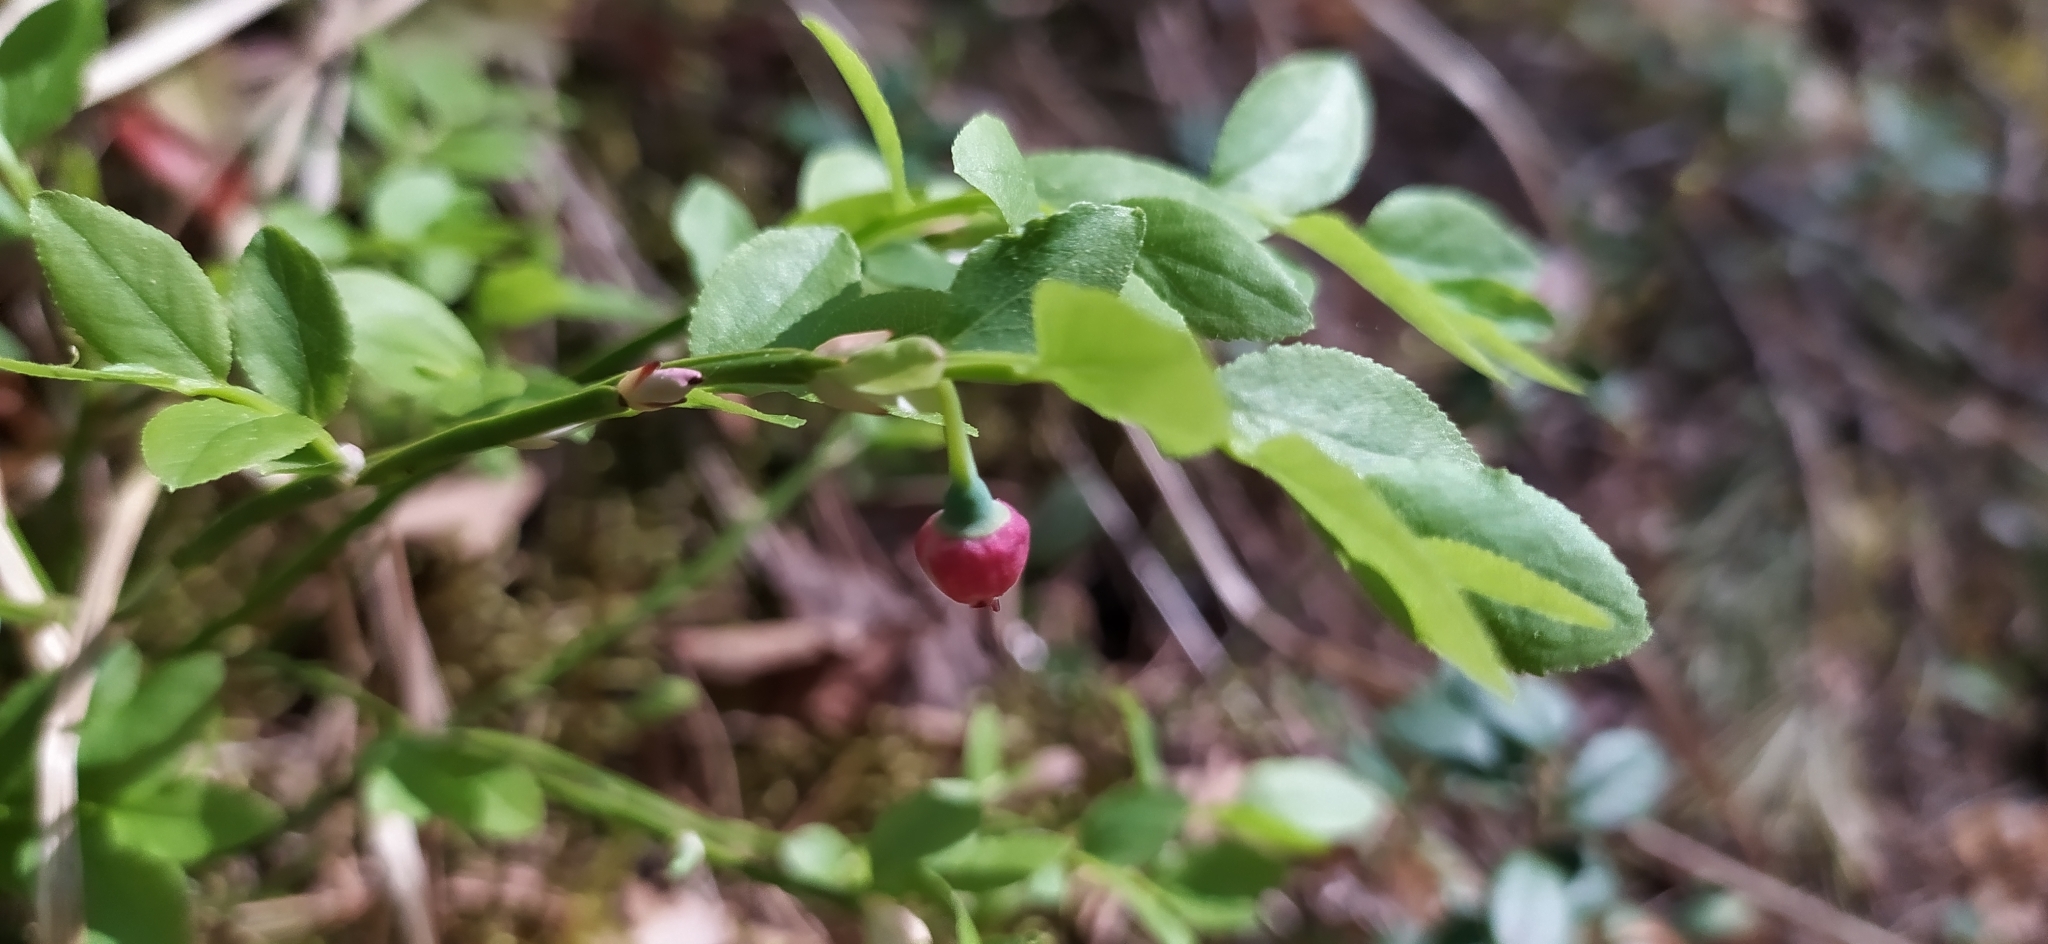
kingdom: Plantae
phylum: Tracheophyta
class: Magnoliopsida
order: Ericales
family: Ericaceae
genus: Vaccinium
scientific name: Vaccinium myrtillus
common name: Bilberry
